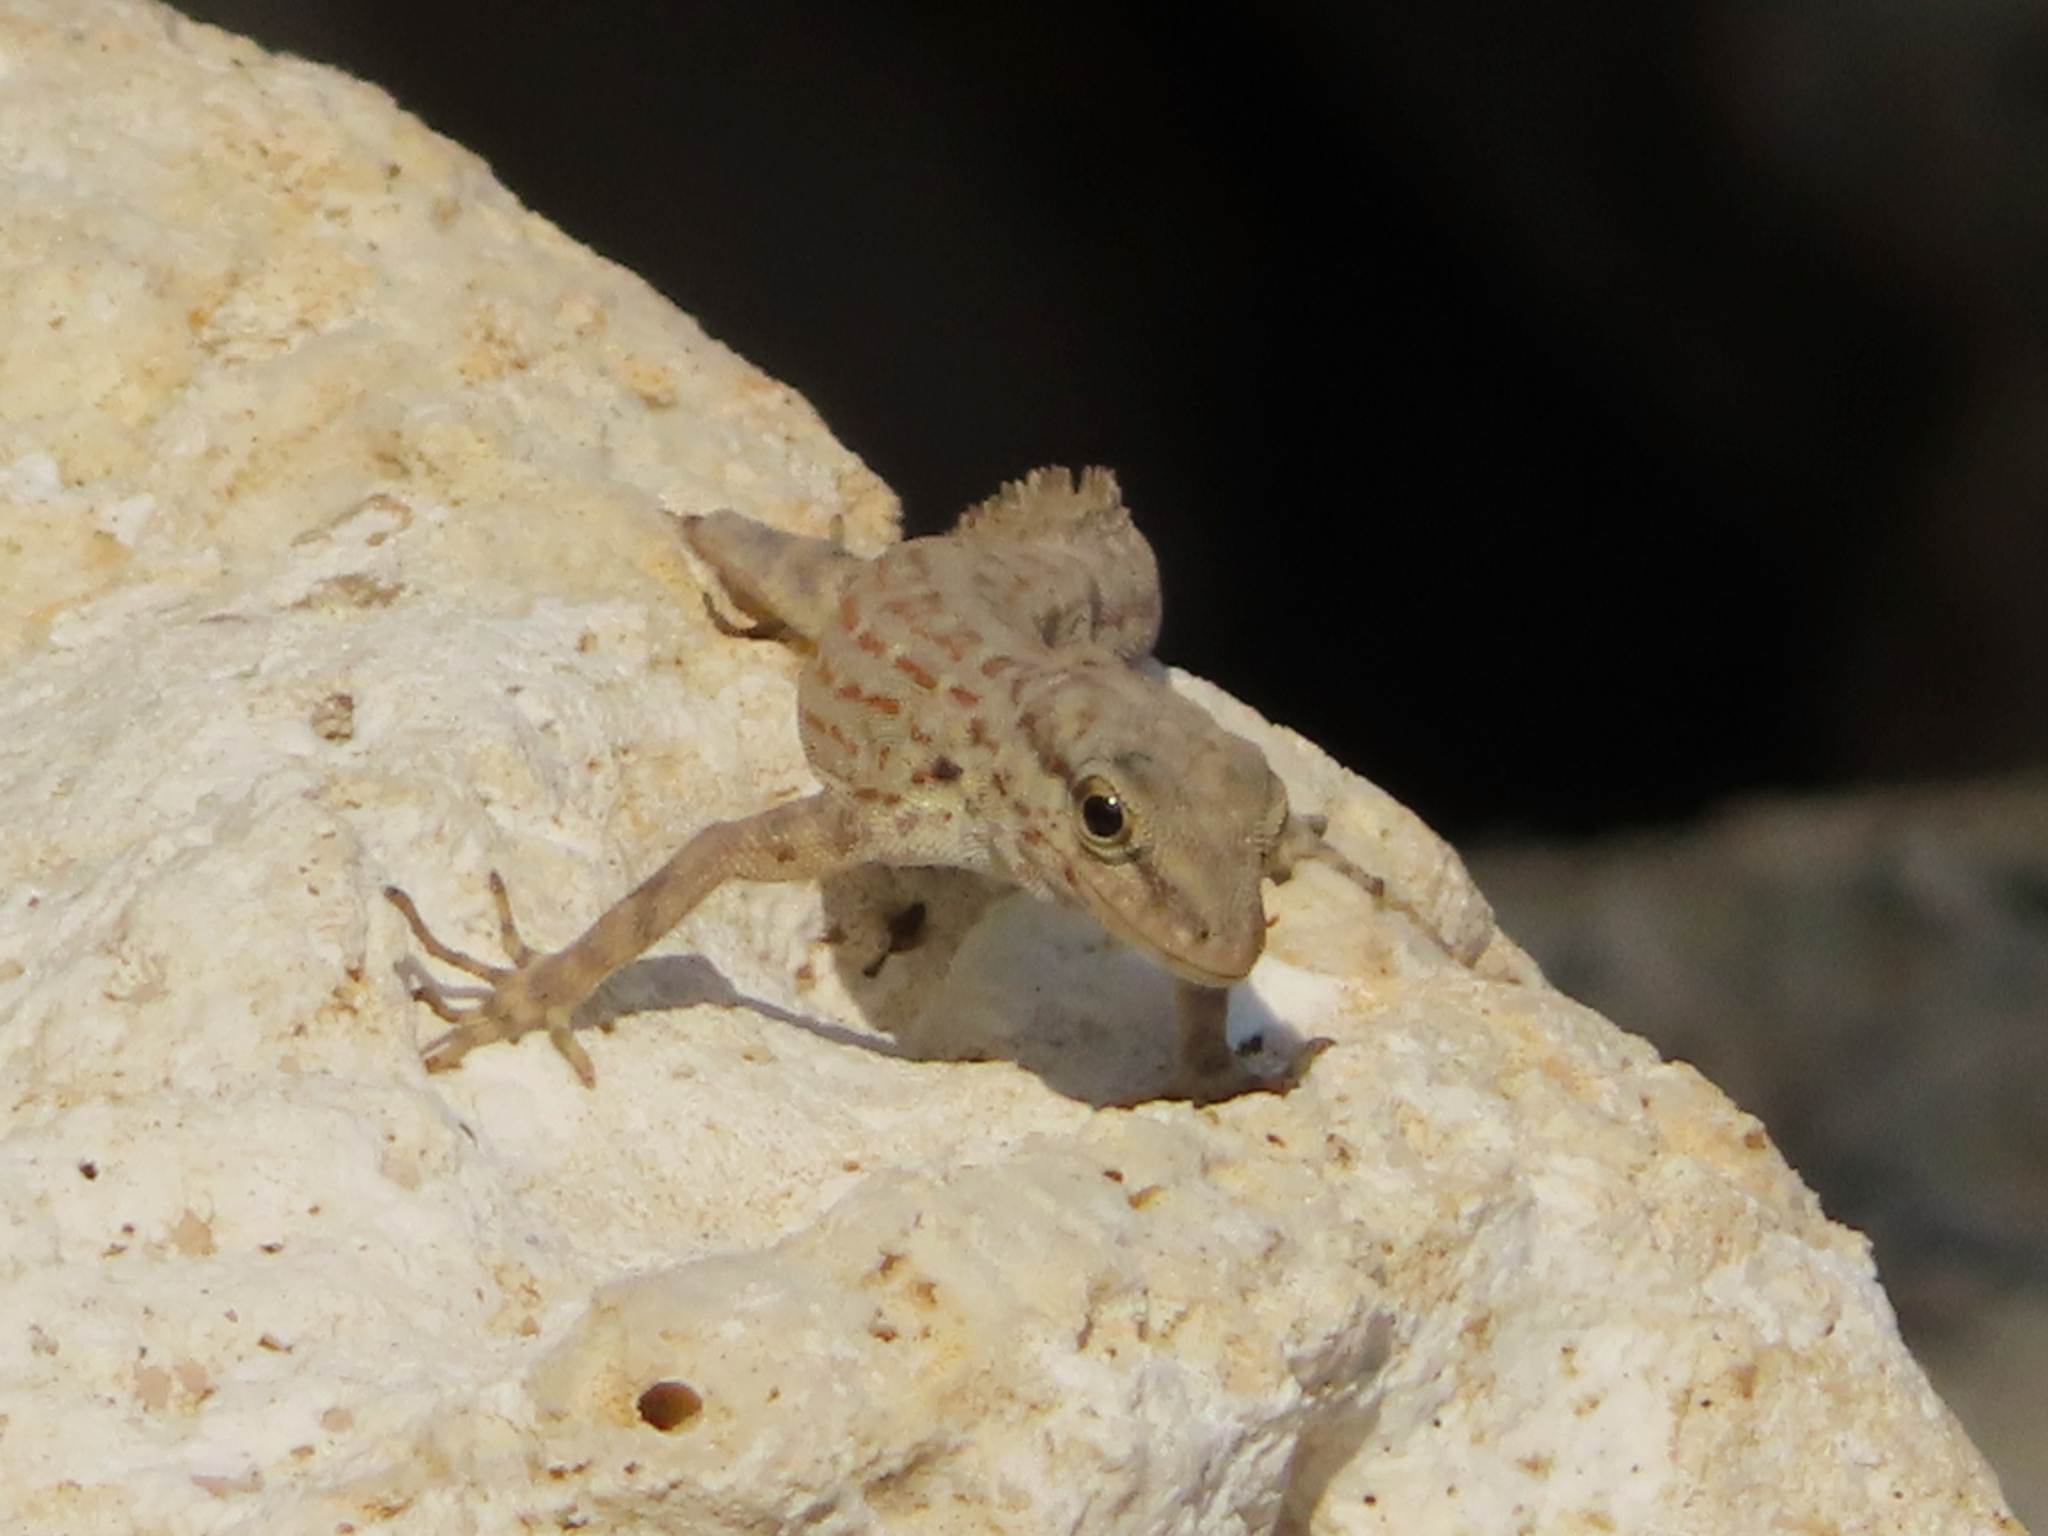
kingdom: Animalia
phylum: Chordata
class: Squamata
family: Sphaerodactylidae
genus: Pristurus
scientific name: Pristurus rupestris
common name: Blanford’s semaphore gecko
